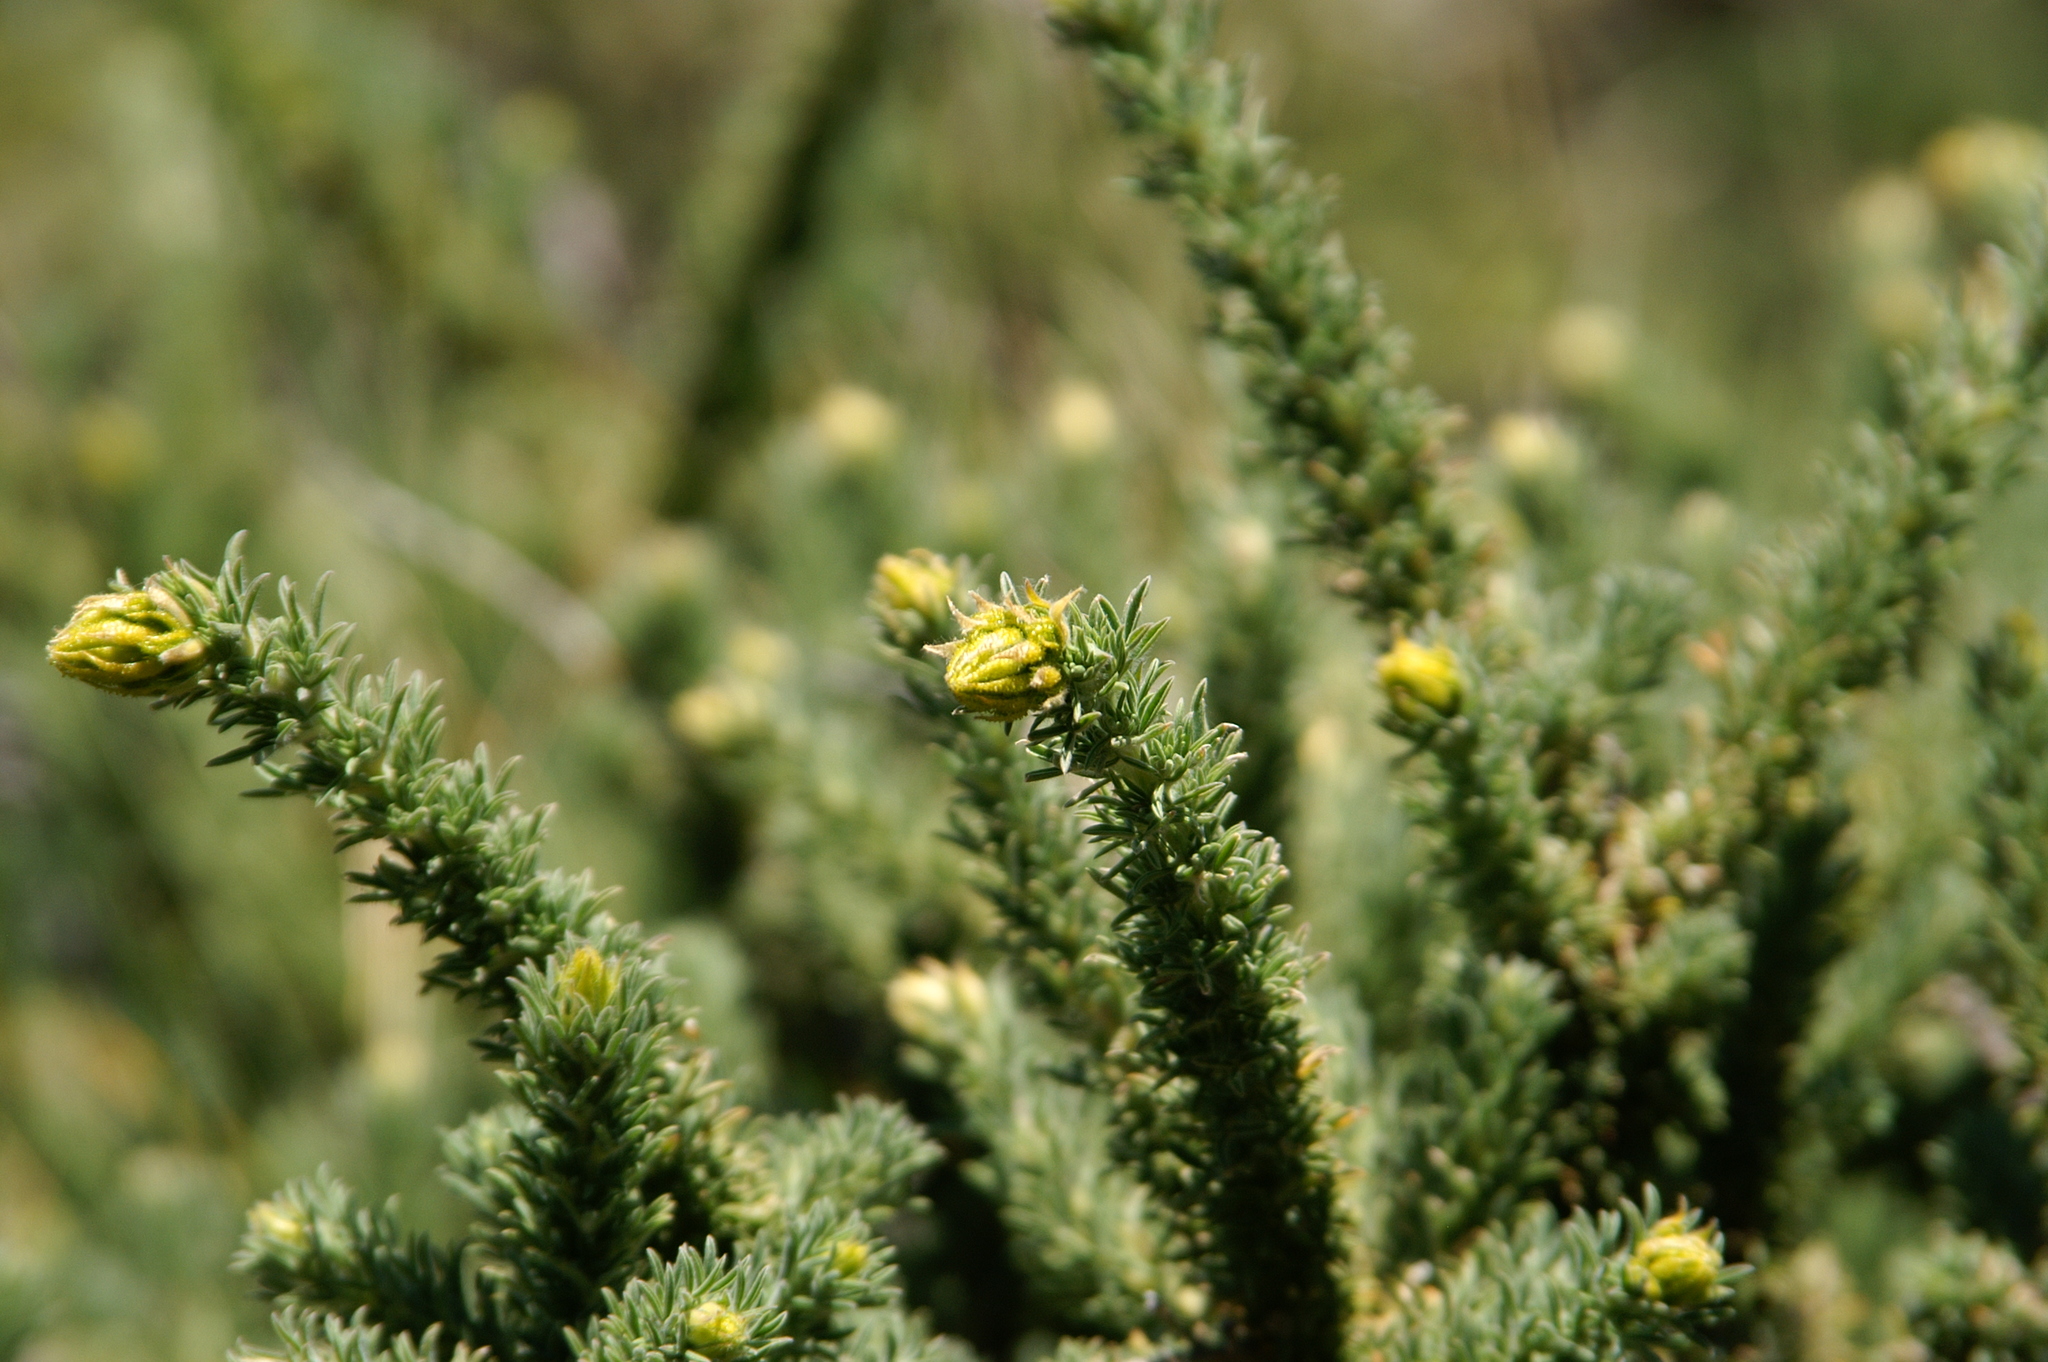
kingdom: Plantae
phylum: Tracheophyta
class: Magnoliopsida
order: Fabales
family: Fabaceae
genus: Adenocarpus
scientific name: Adenocarpus viscosus
